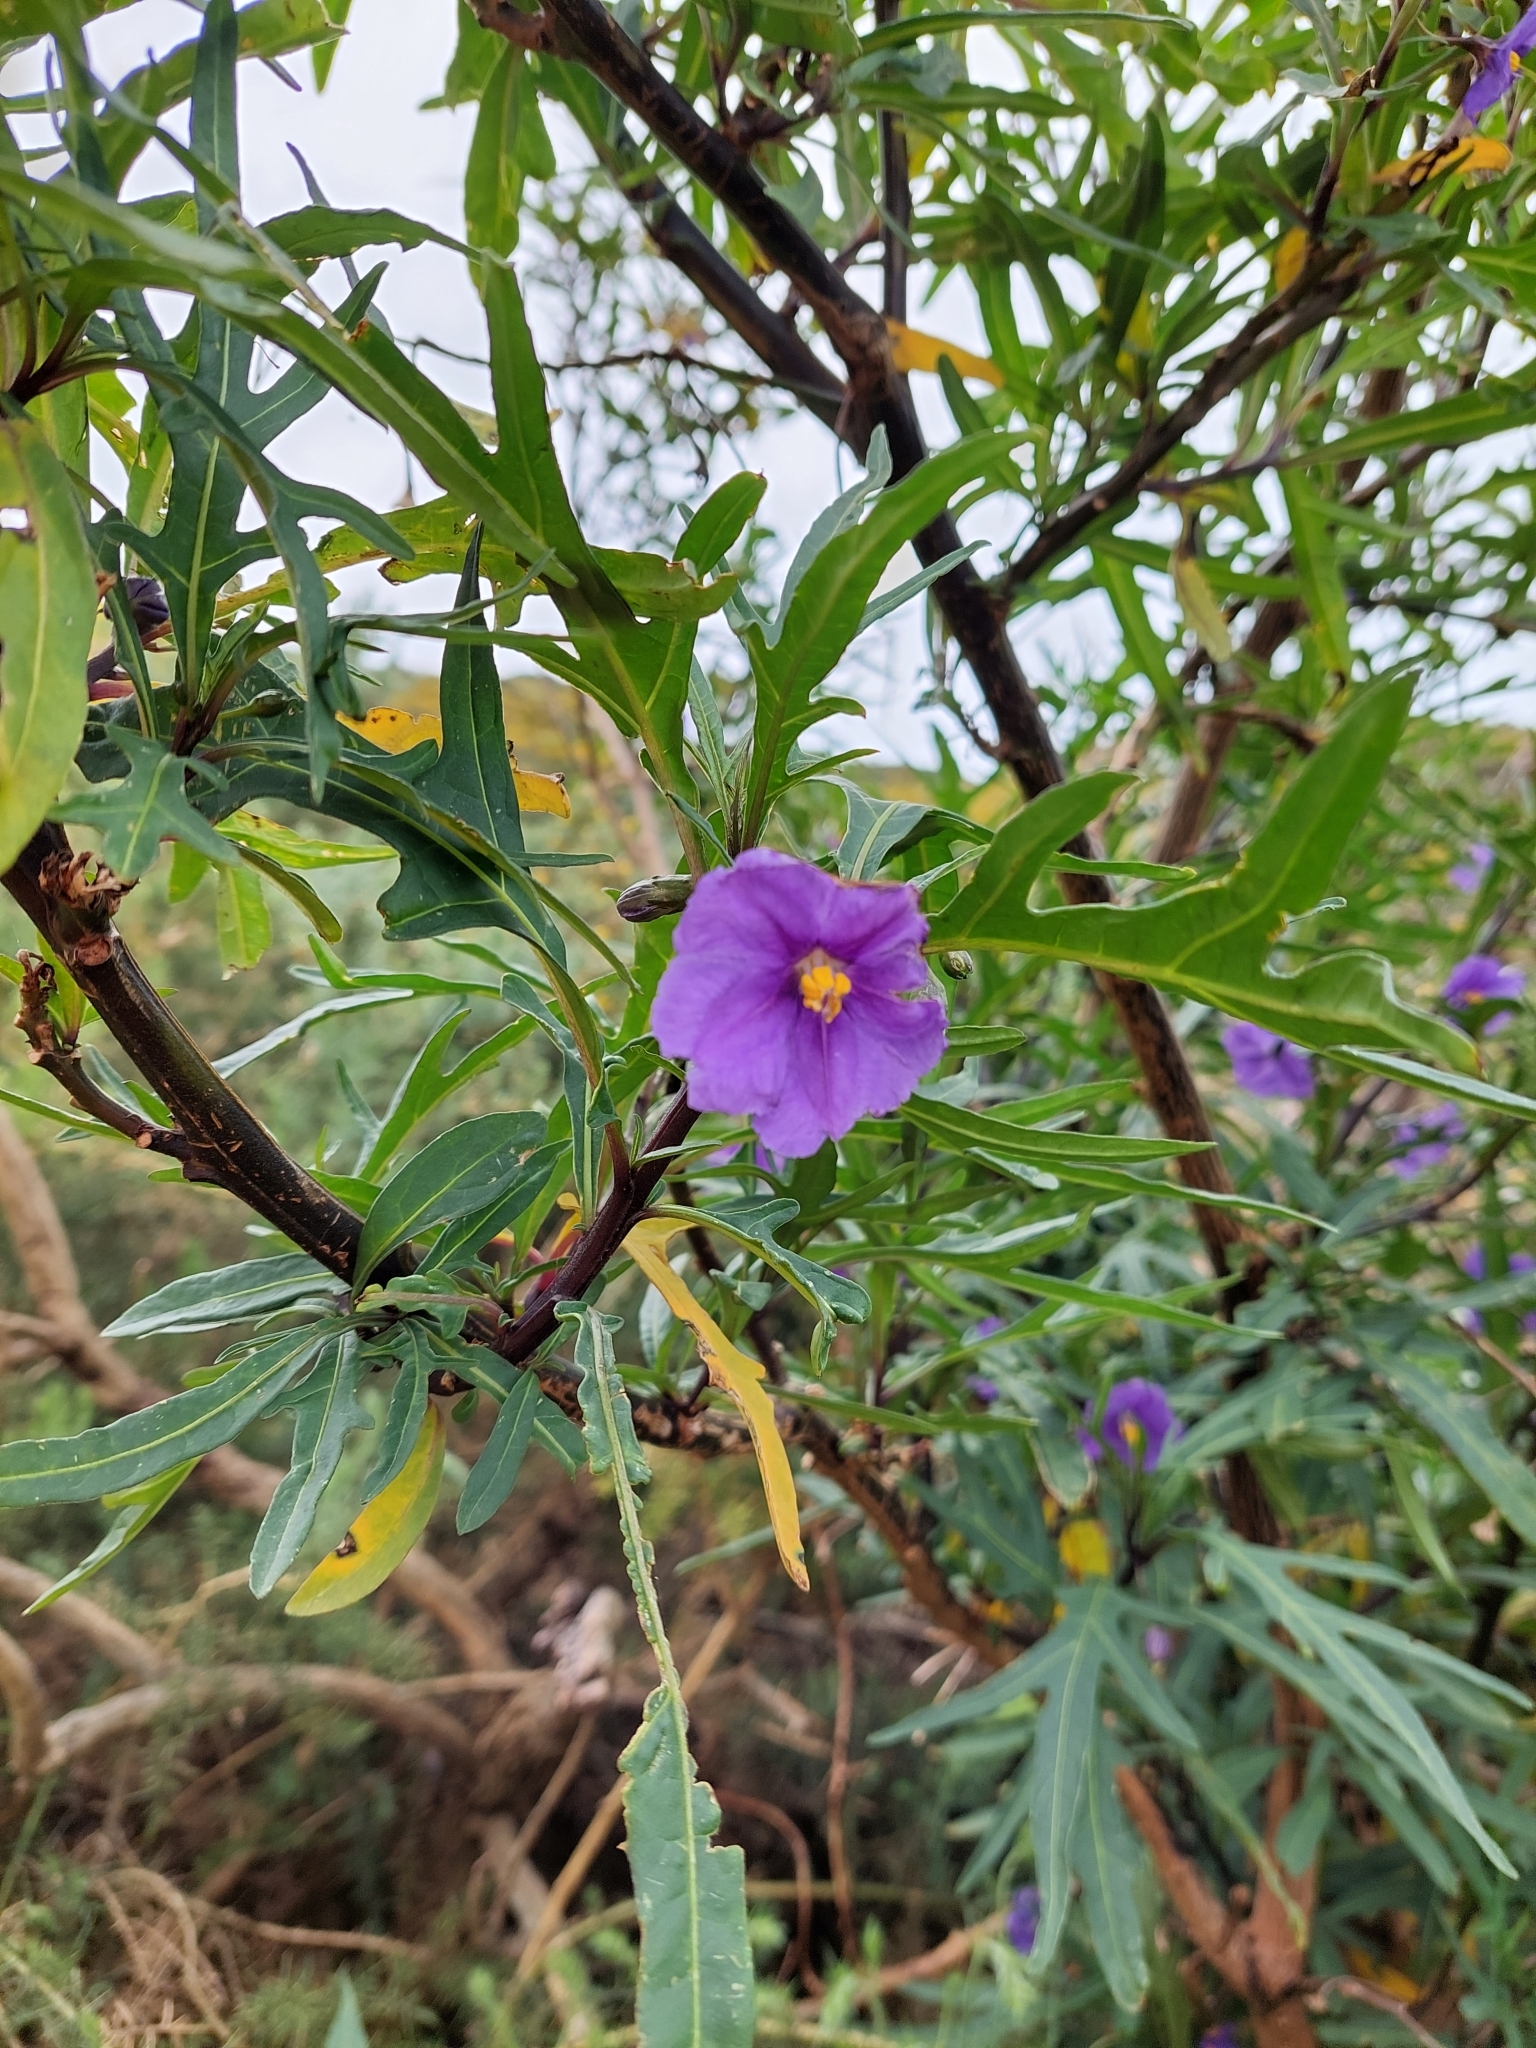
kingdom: Plantae
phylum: Tracheophyta
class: Magnoliopsida
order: Solanales
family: Solanaceae
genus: Solanum
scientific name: Solanum laciniatum
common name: Kangaroo-apple
